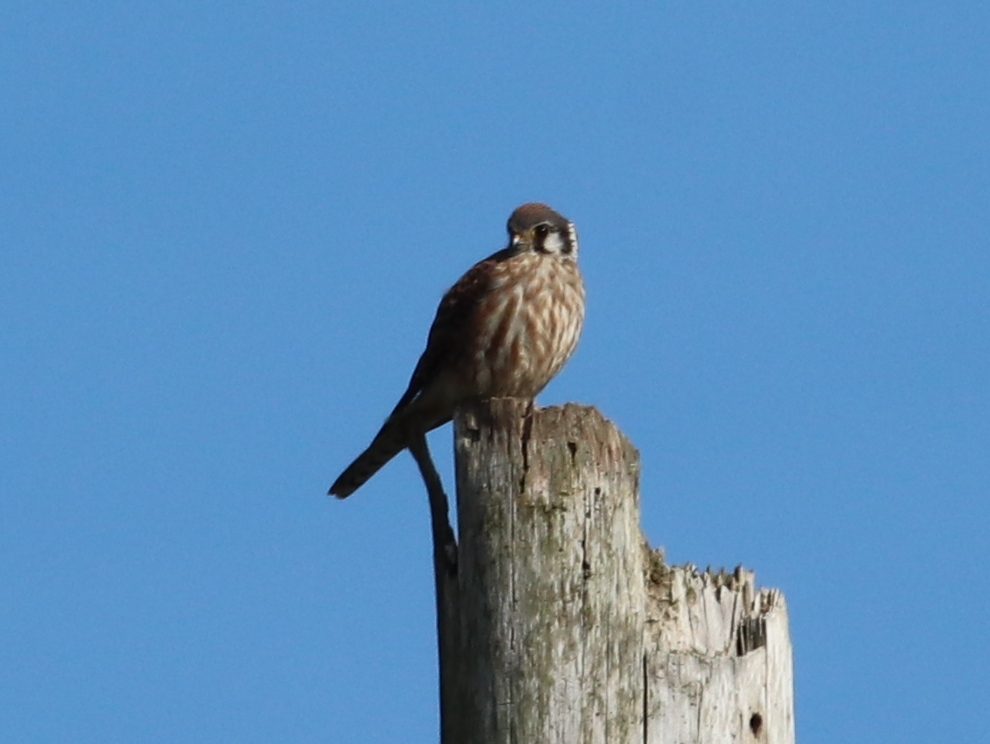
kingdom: Animalia
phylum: Chordata
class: Aves
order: Falconiformes
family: Falconidae
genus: Falco
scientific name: Falco sparverius
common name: American kestrel
